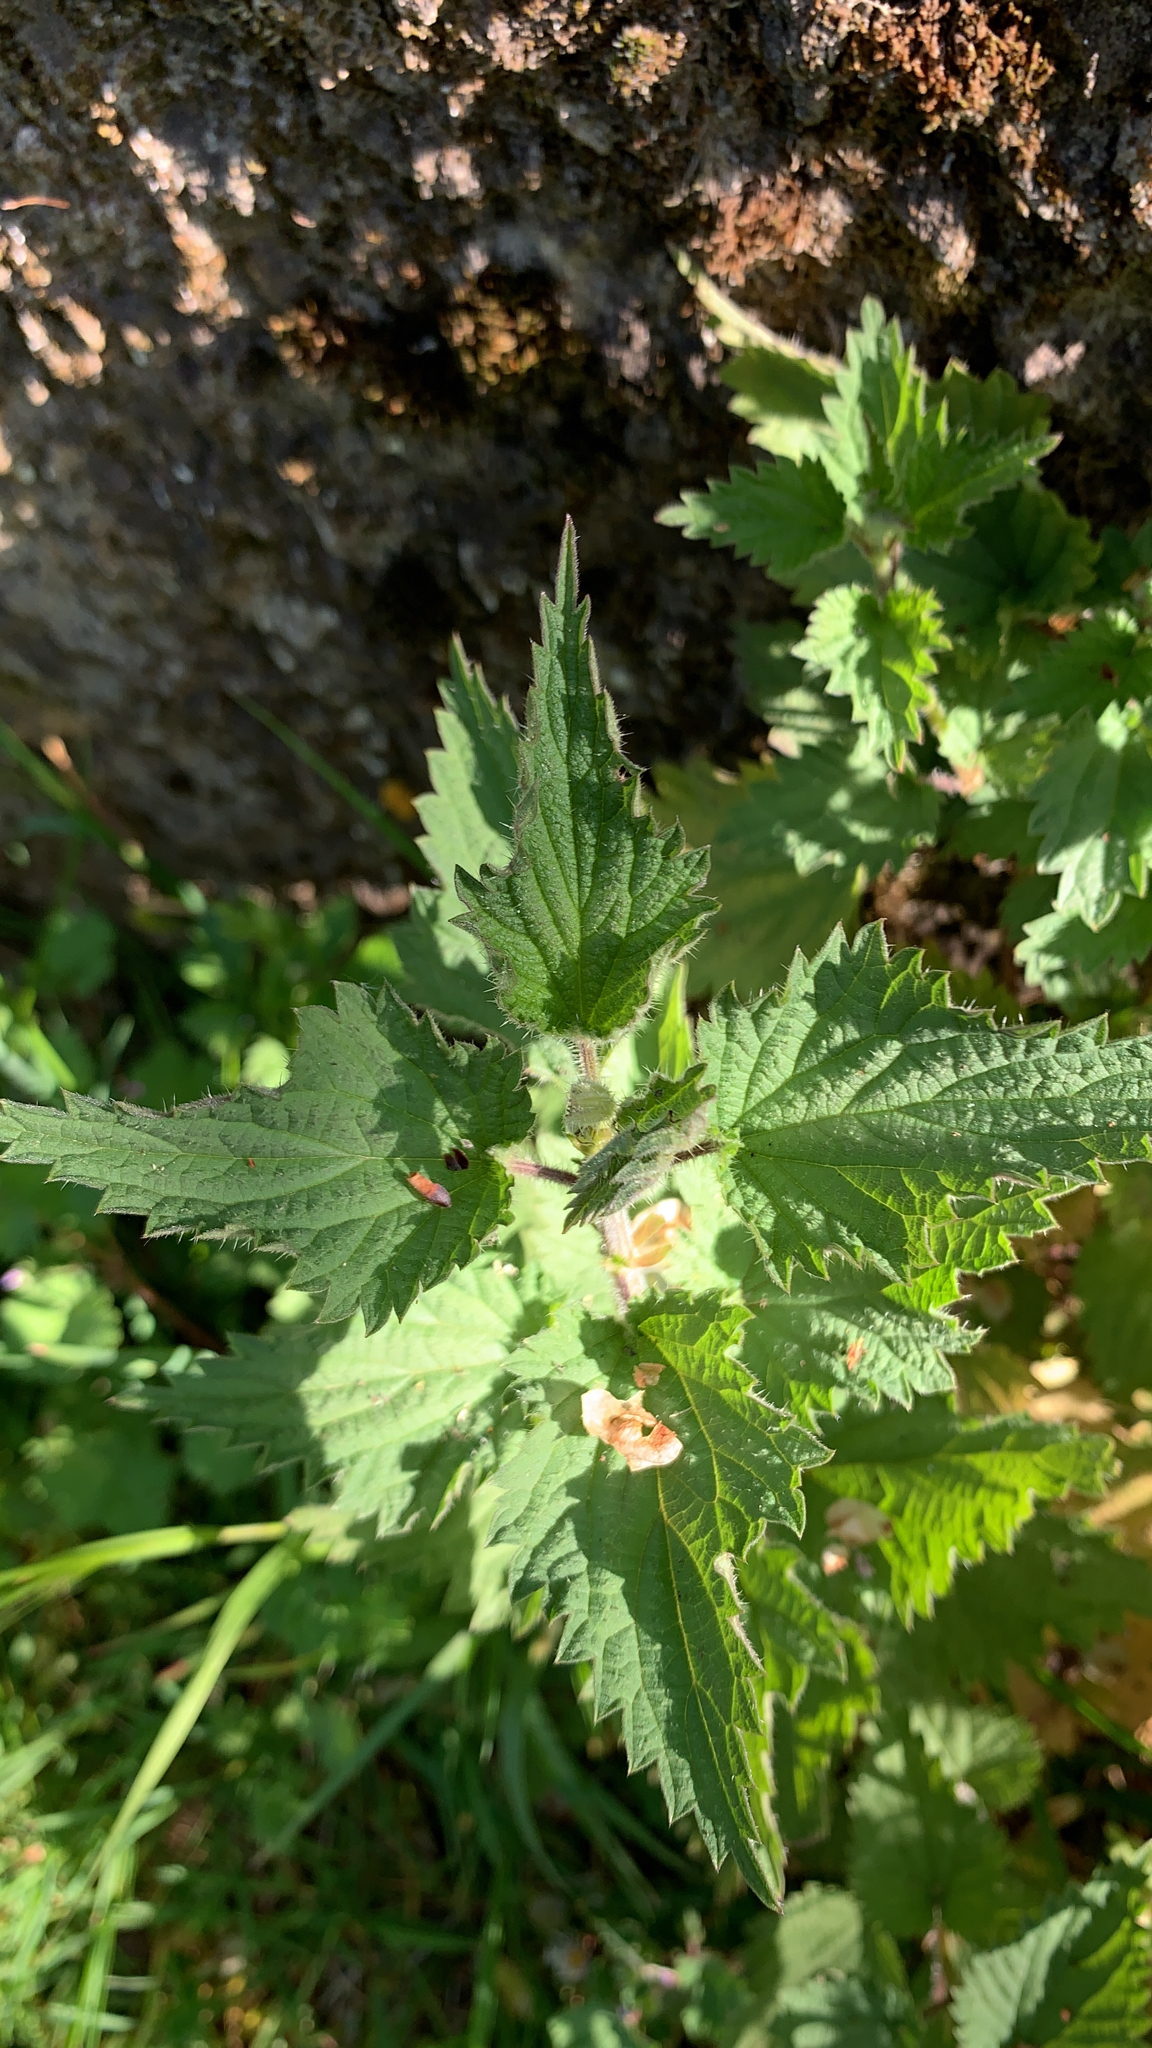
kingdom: Plantae
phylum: Tracheophyta
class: Magnoliopsida
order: Rosales
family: Urticaceae
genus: Urtica
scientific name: Urtica dioica
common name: Common nettle
